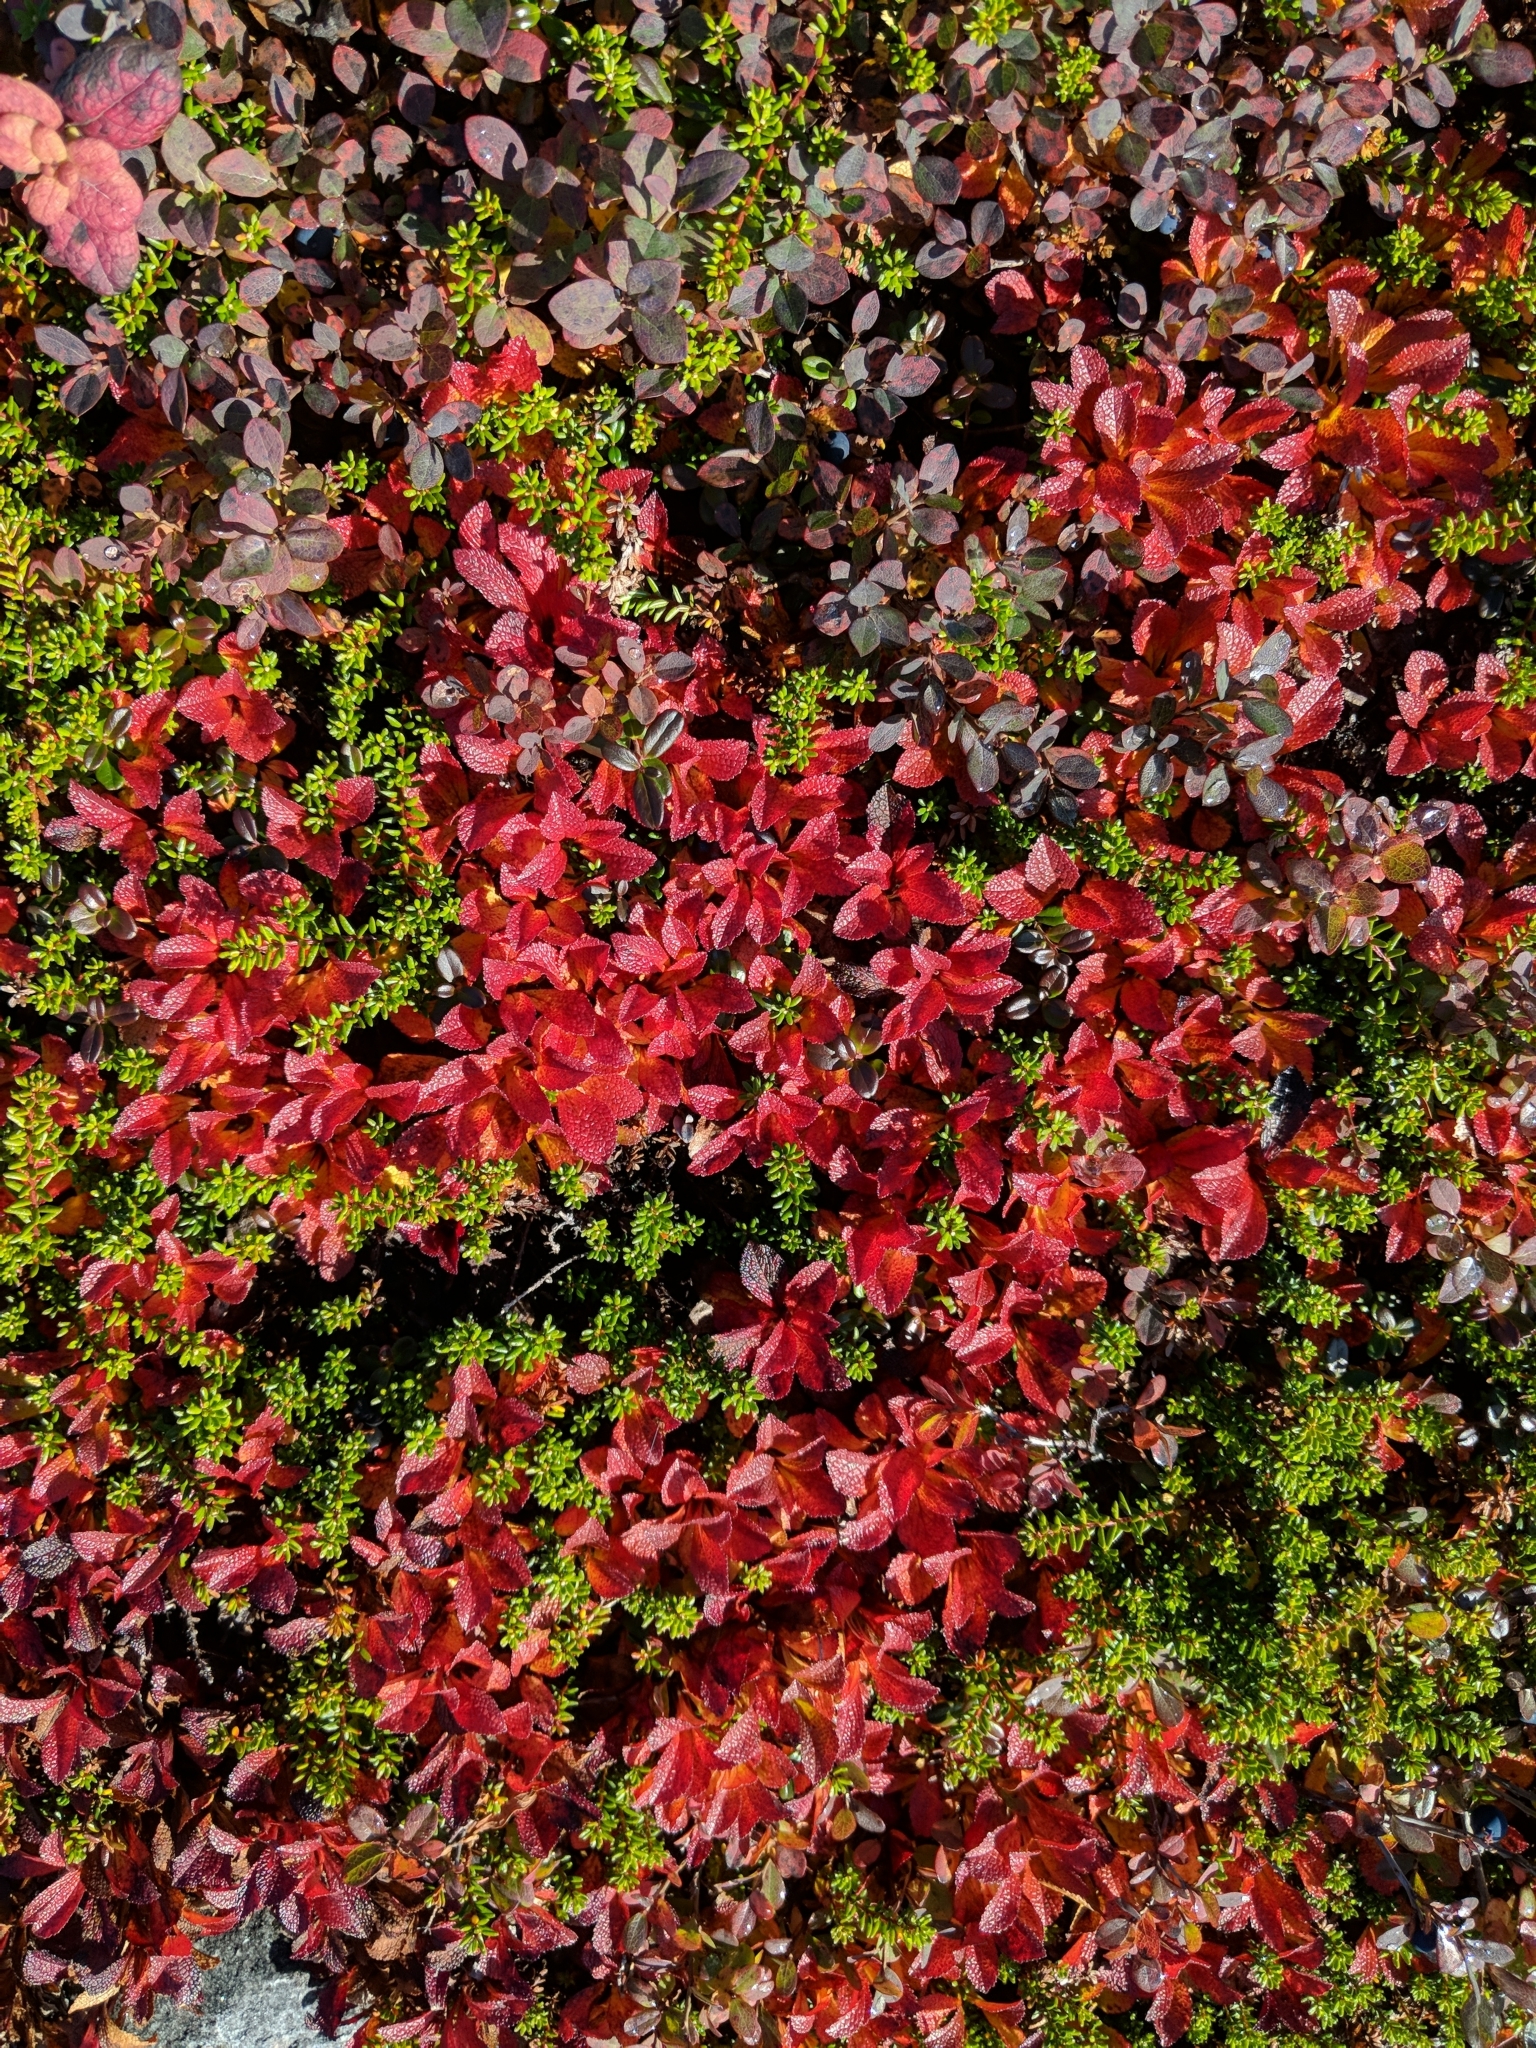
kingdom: Plantae
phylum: Tracheophyta
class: Magnoliopsida
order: Ericales
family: Ericaceae
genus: Arctostaphylos
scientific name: Arctostaphylos alpinus
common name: Alpine bearberry
